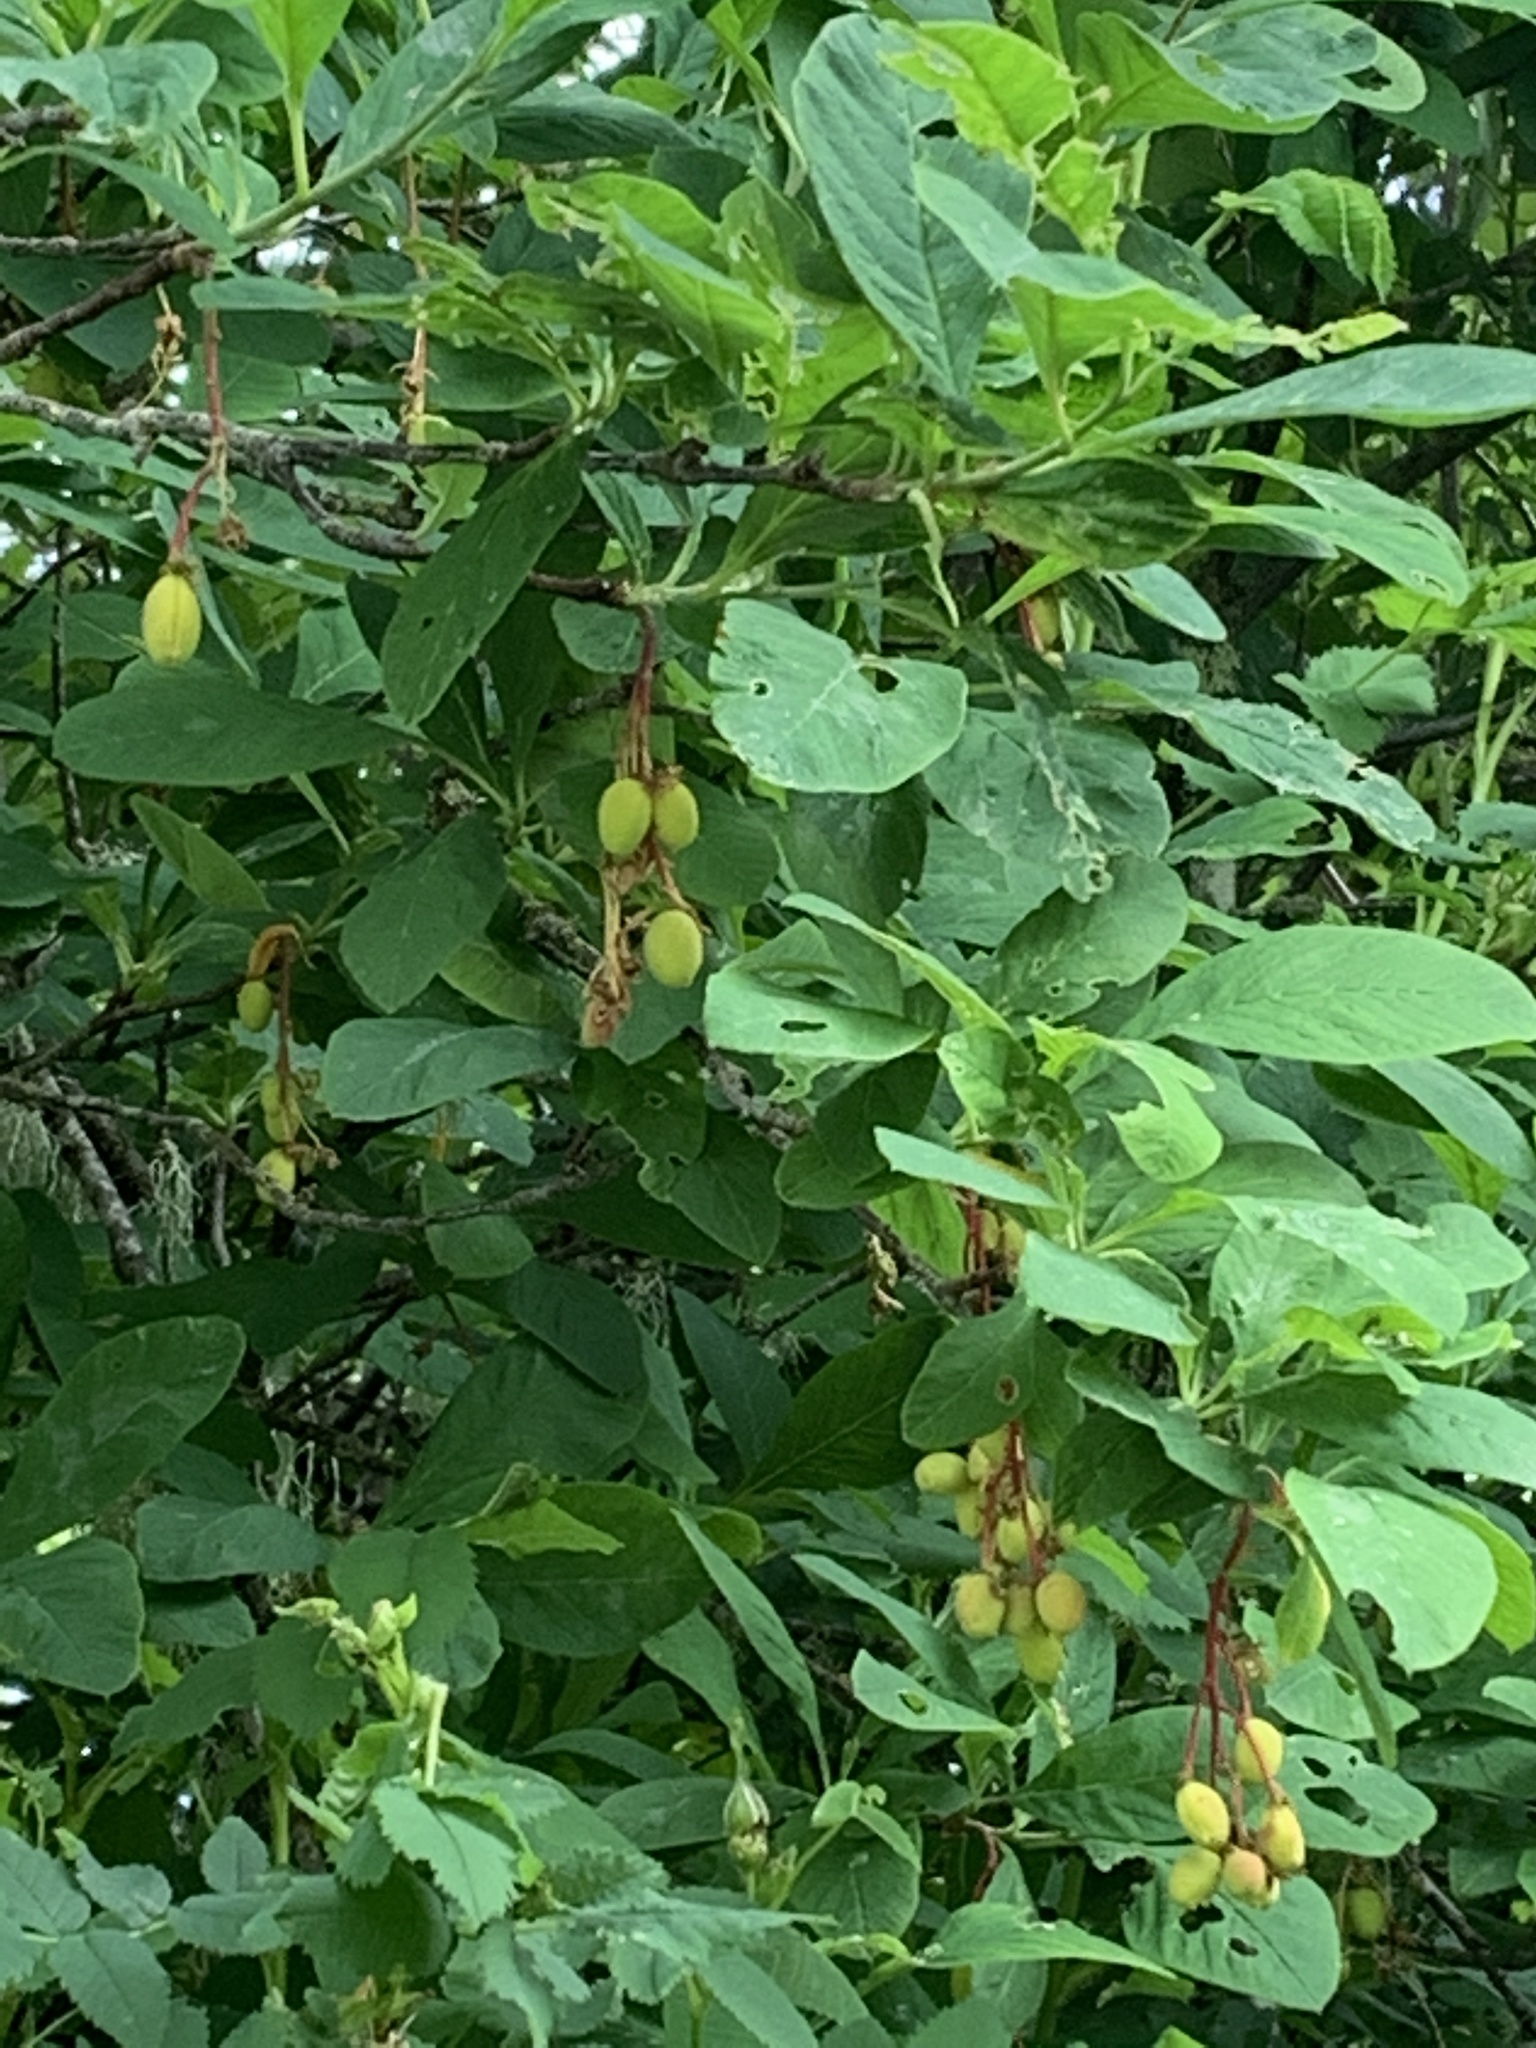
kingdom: Plantae
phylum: Tracheophyta
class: Magnoliopsida
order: Rosales
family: Rosaceae
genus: Oemleria
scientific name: Oemleria cerasiformis
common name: Osoberry
